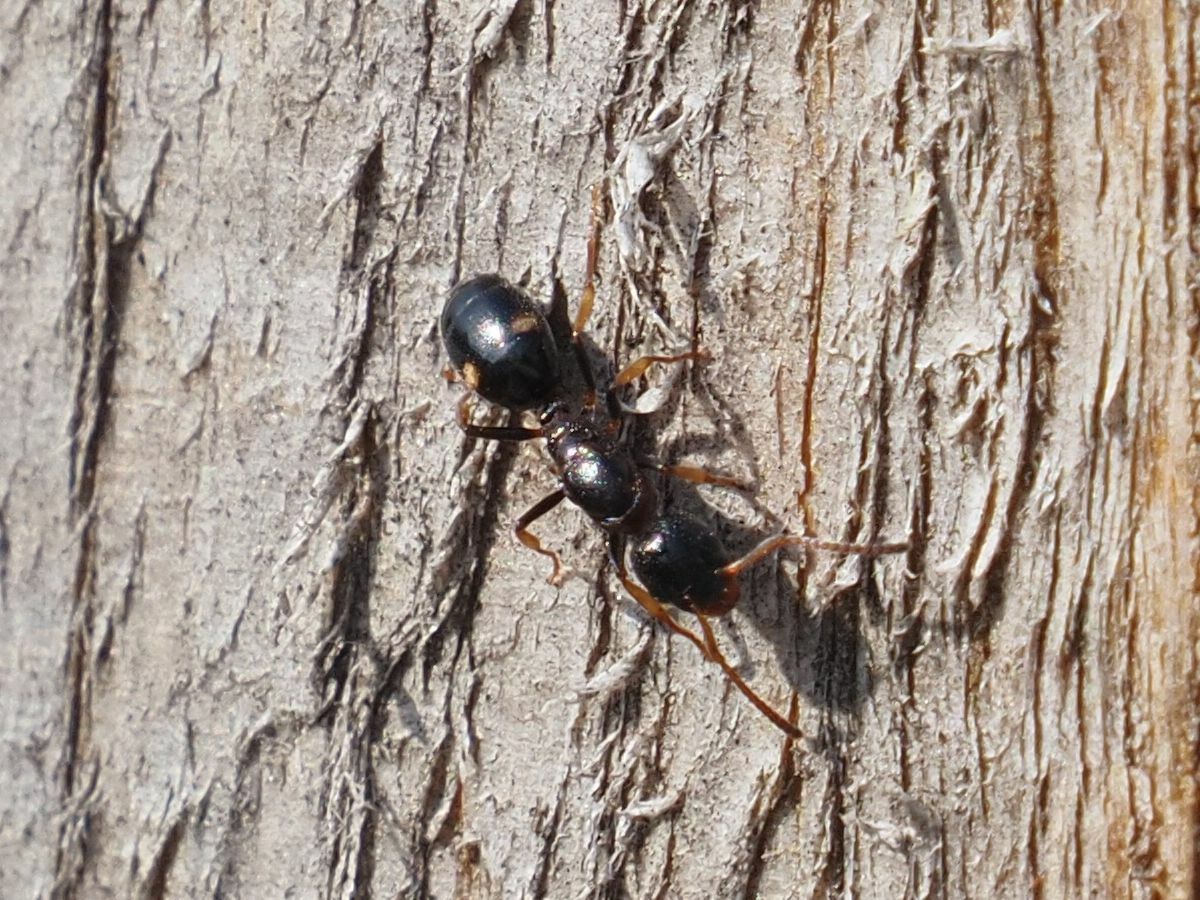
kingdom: Animalia
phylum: Arthropoda
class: Insecta
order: Hymenoptera
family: Formicidae
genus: Dolichoderus
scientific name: Dolichoderus quadripunctatus
